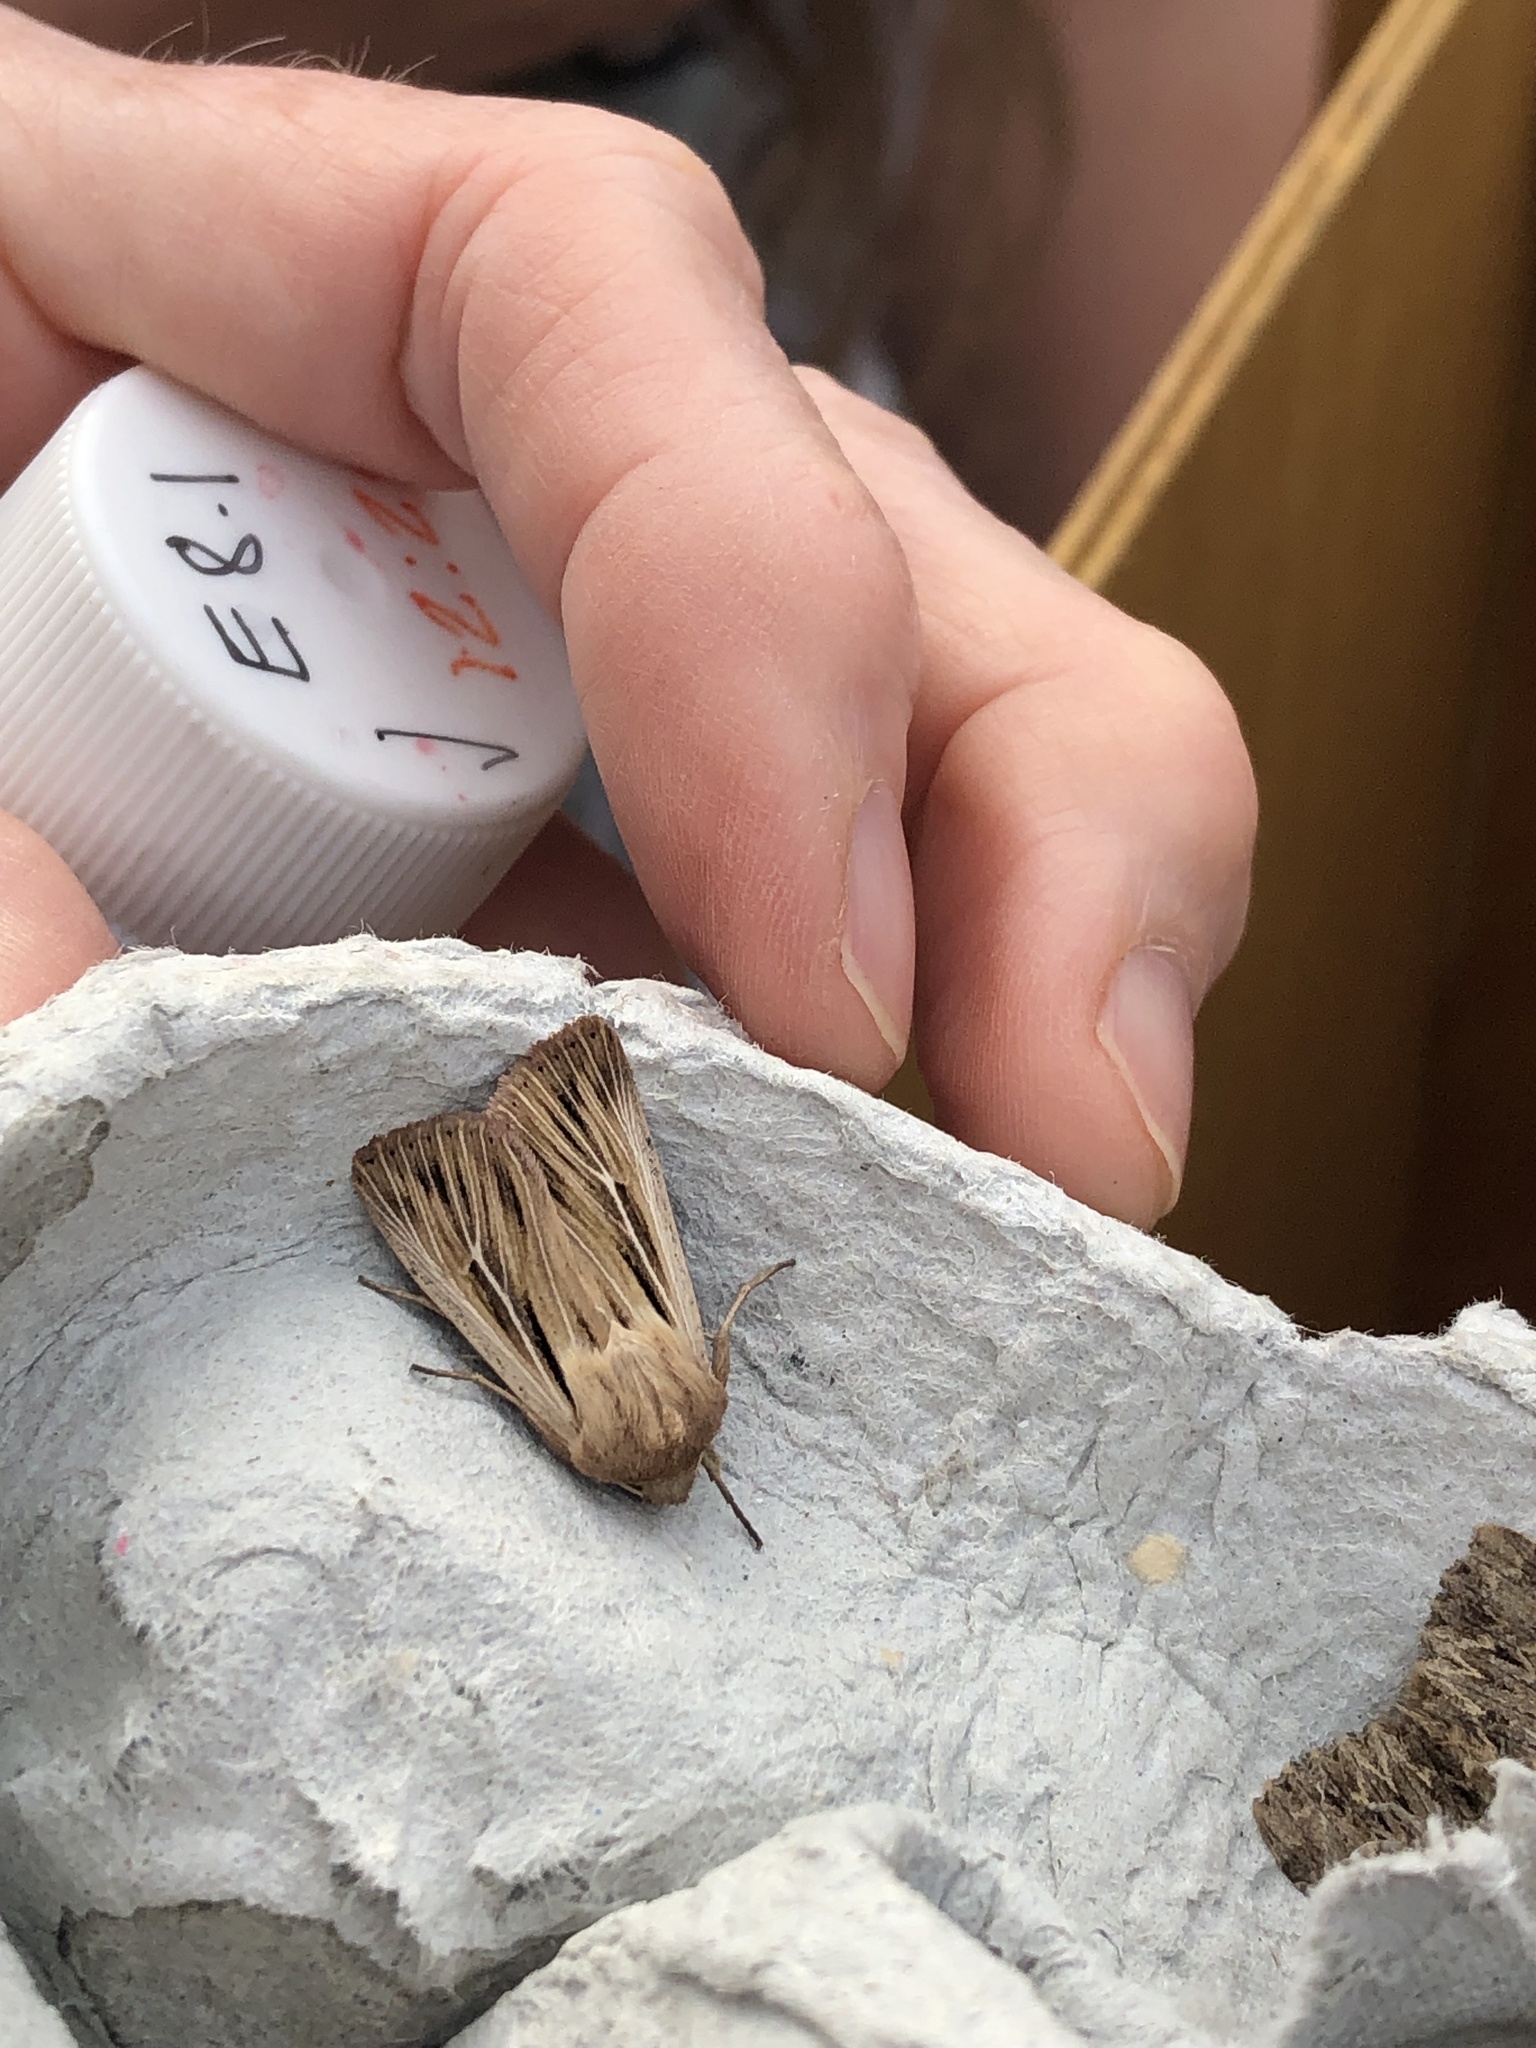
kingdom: Animalia
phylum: Arthropoda
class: Insecta
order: Lepidoptera
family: Noctuidae
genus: Leucania
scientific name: Leucania comma
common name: Shoulder-striped wainscot
